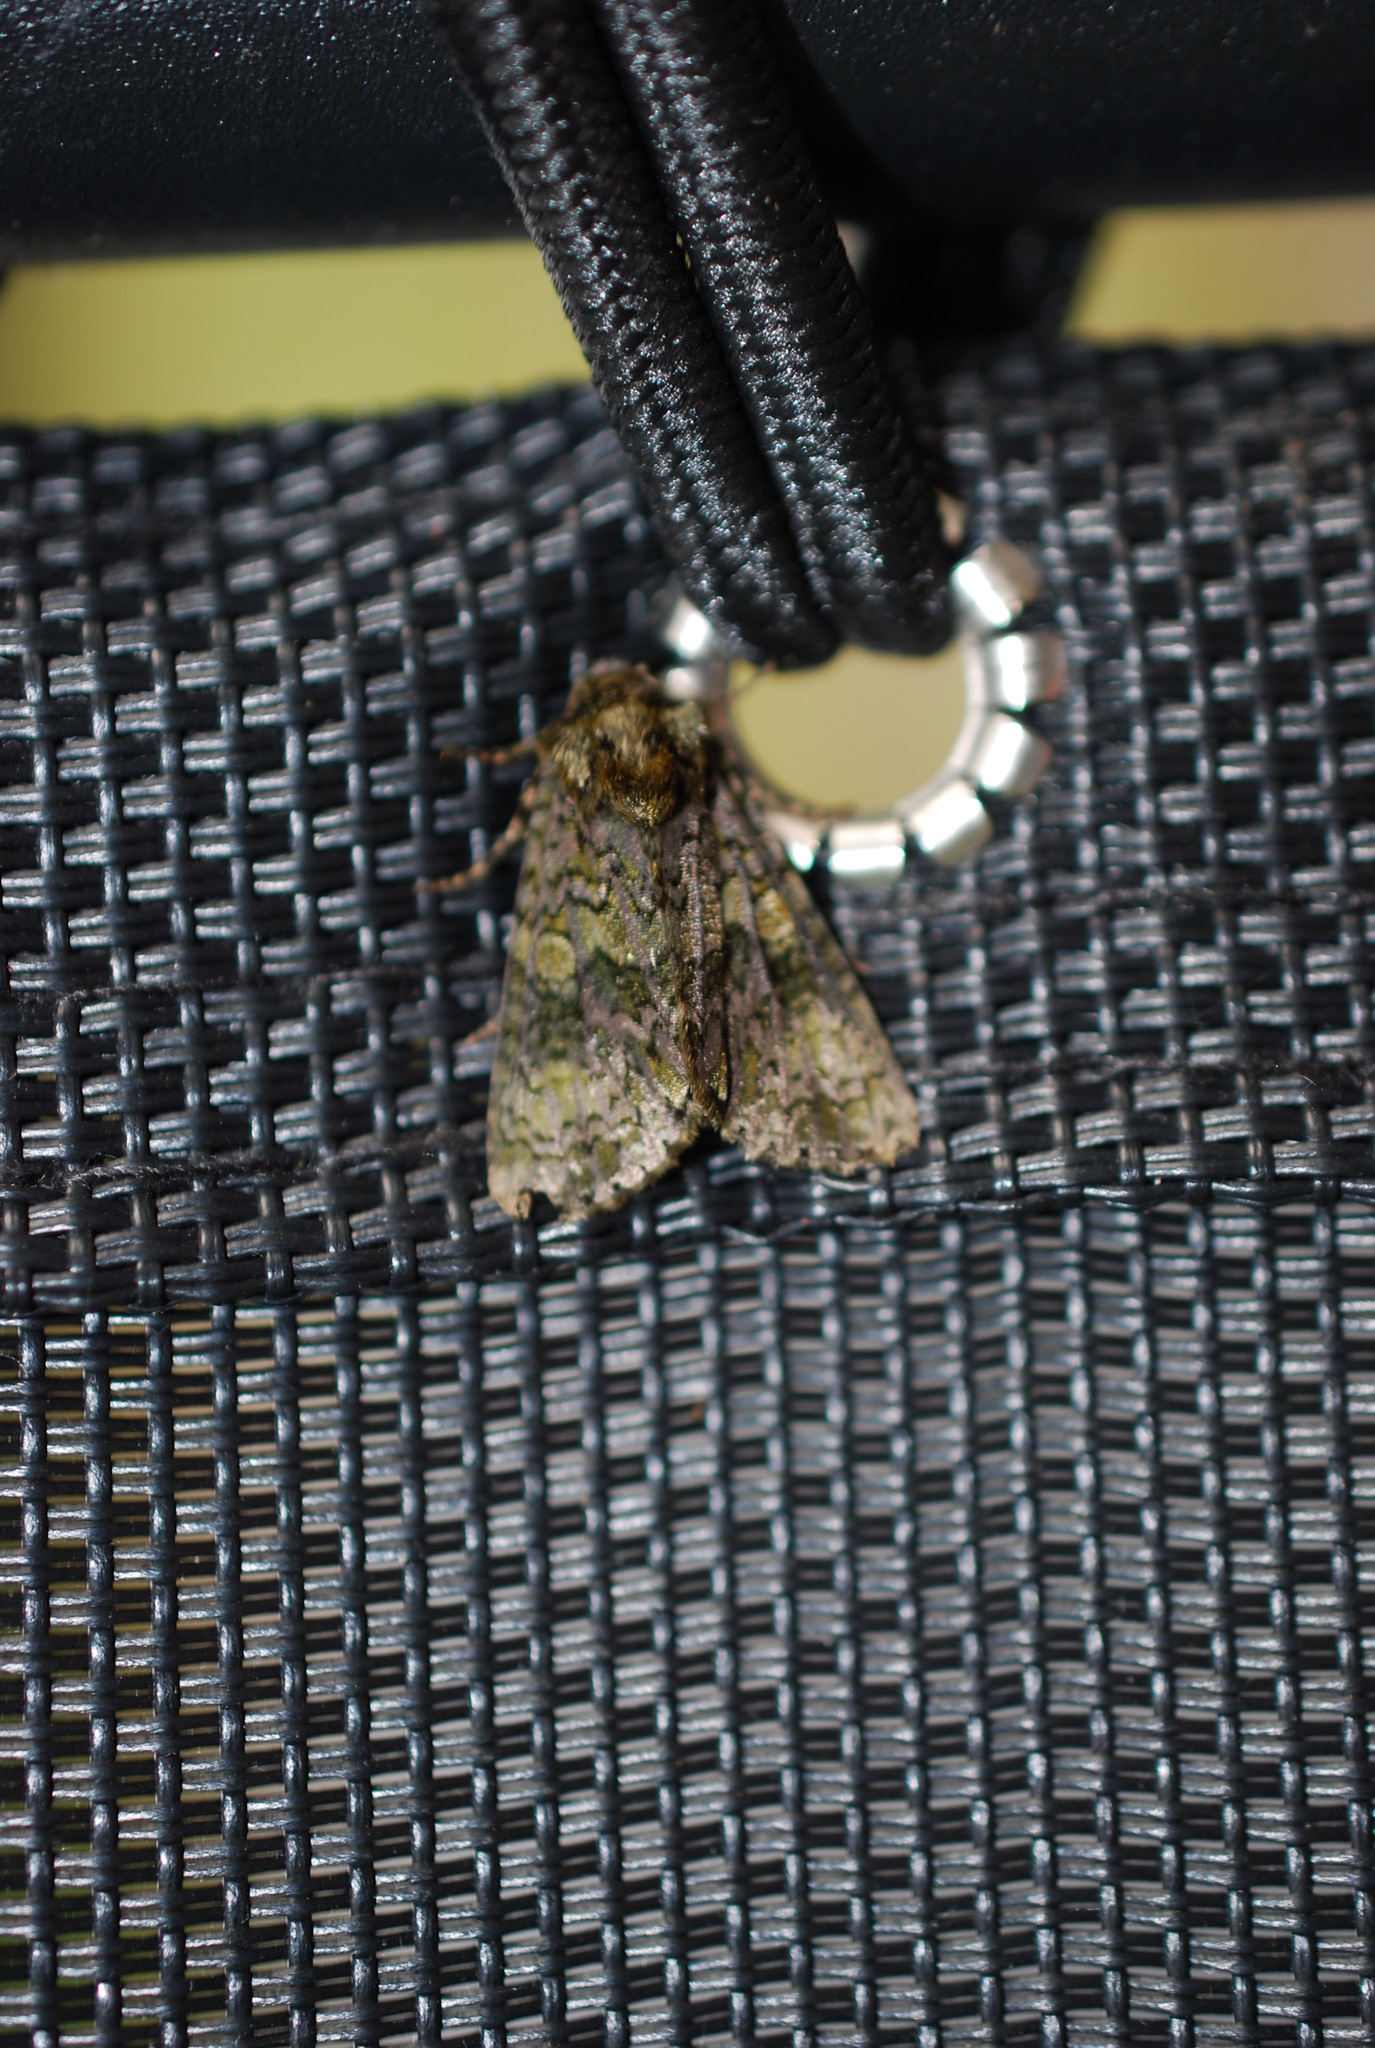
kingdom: Animalia
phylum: Arthropoda
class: Insecta
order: Lepidoptera
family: Noctuidae
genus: Craniophora
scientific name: Craniophora ligustri
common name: Coronet
